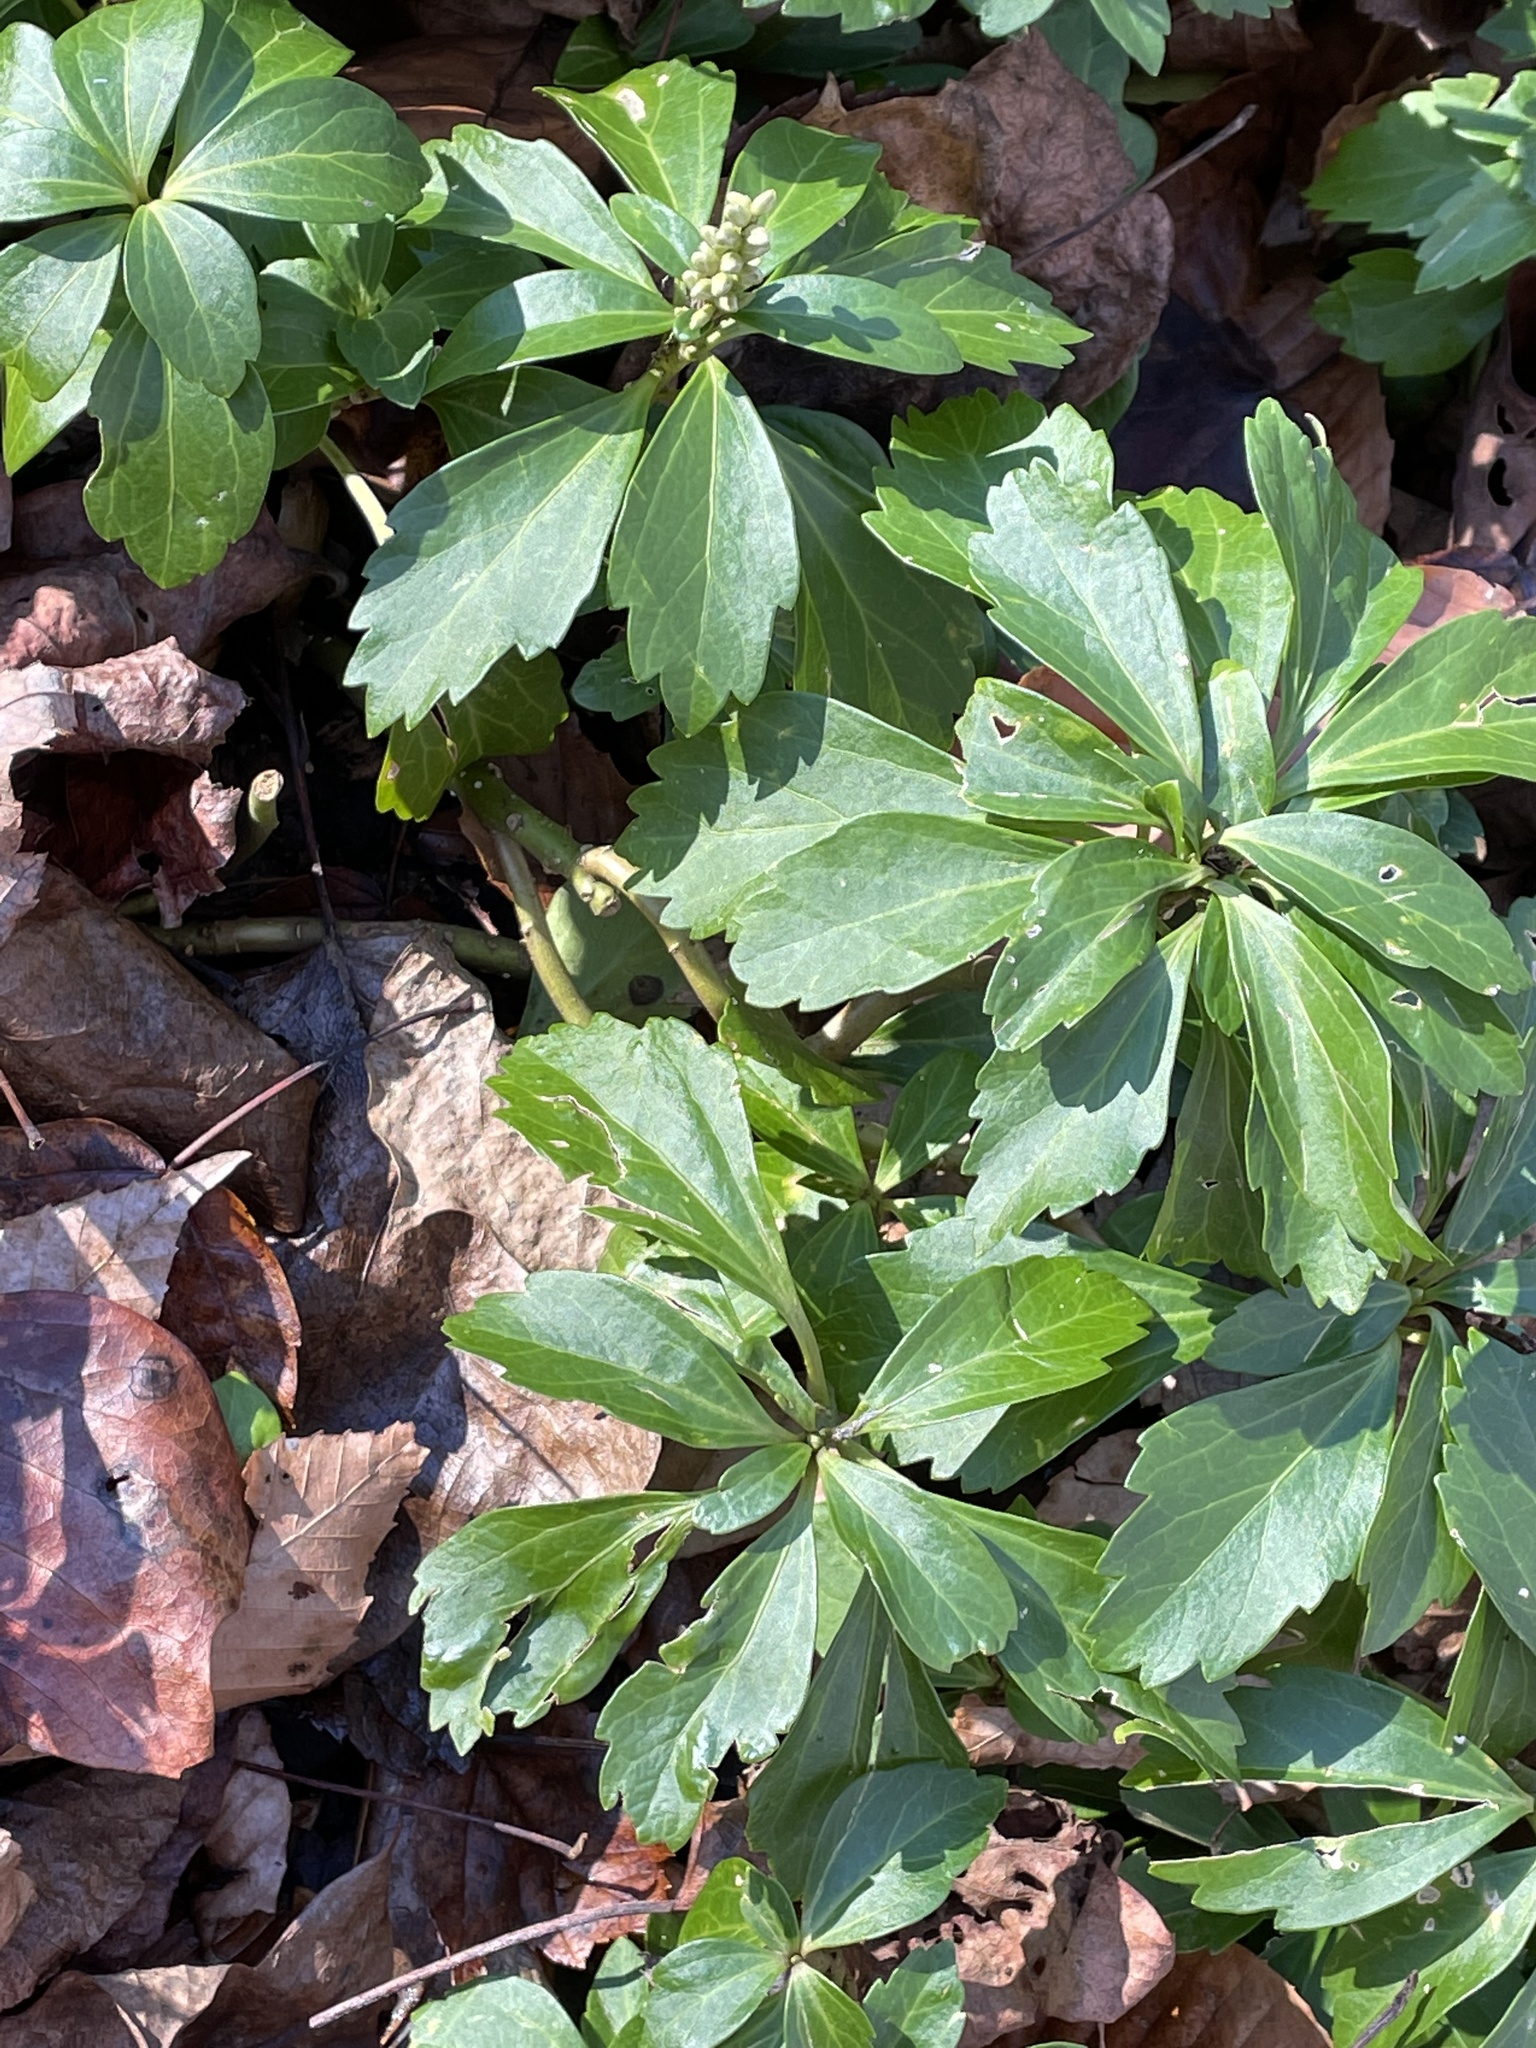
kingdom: Plantae
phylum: Tracheophyta
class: Magnoliopsida
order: Buxales
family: Buxaceae
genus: Pachysandra
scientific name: Pachysandra terminalis
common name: Japanese pachysandra
